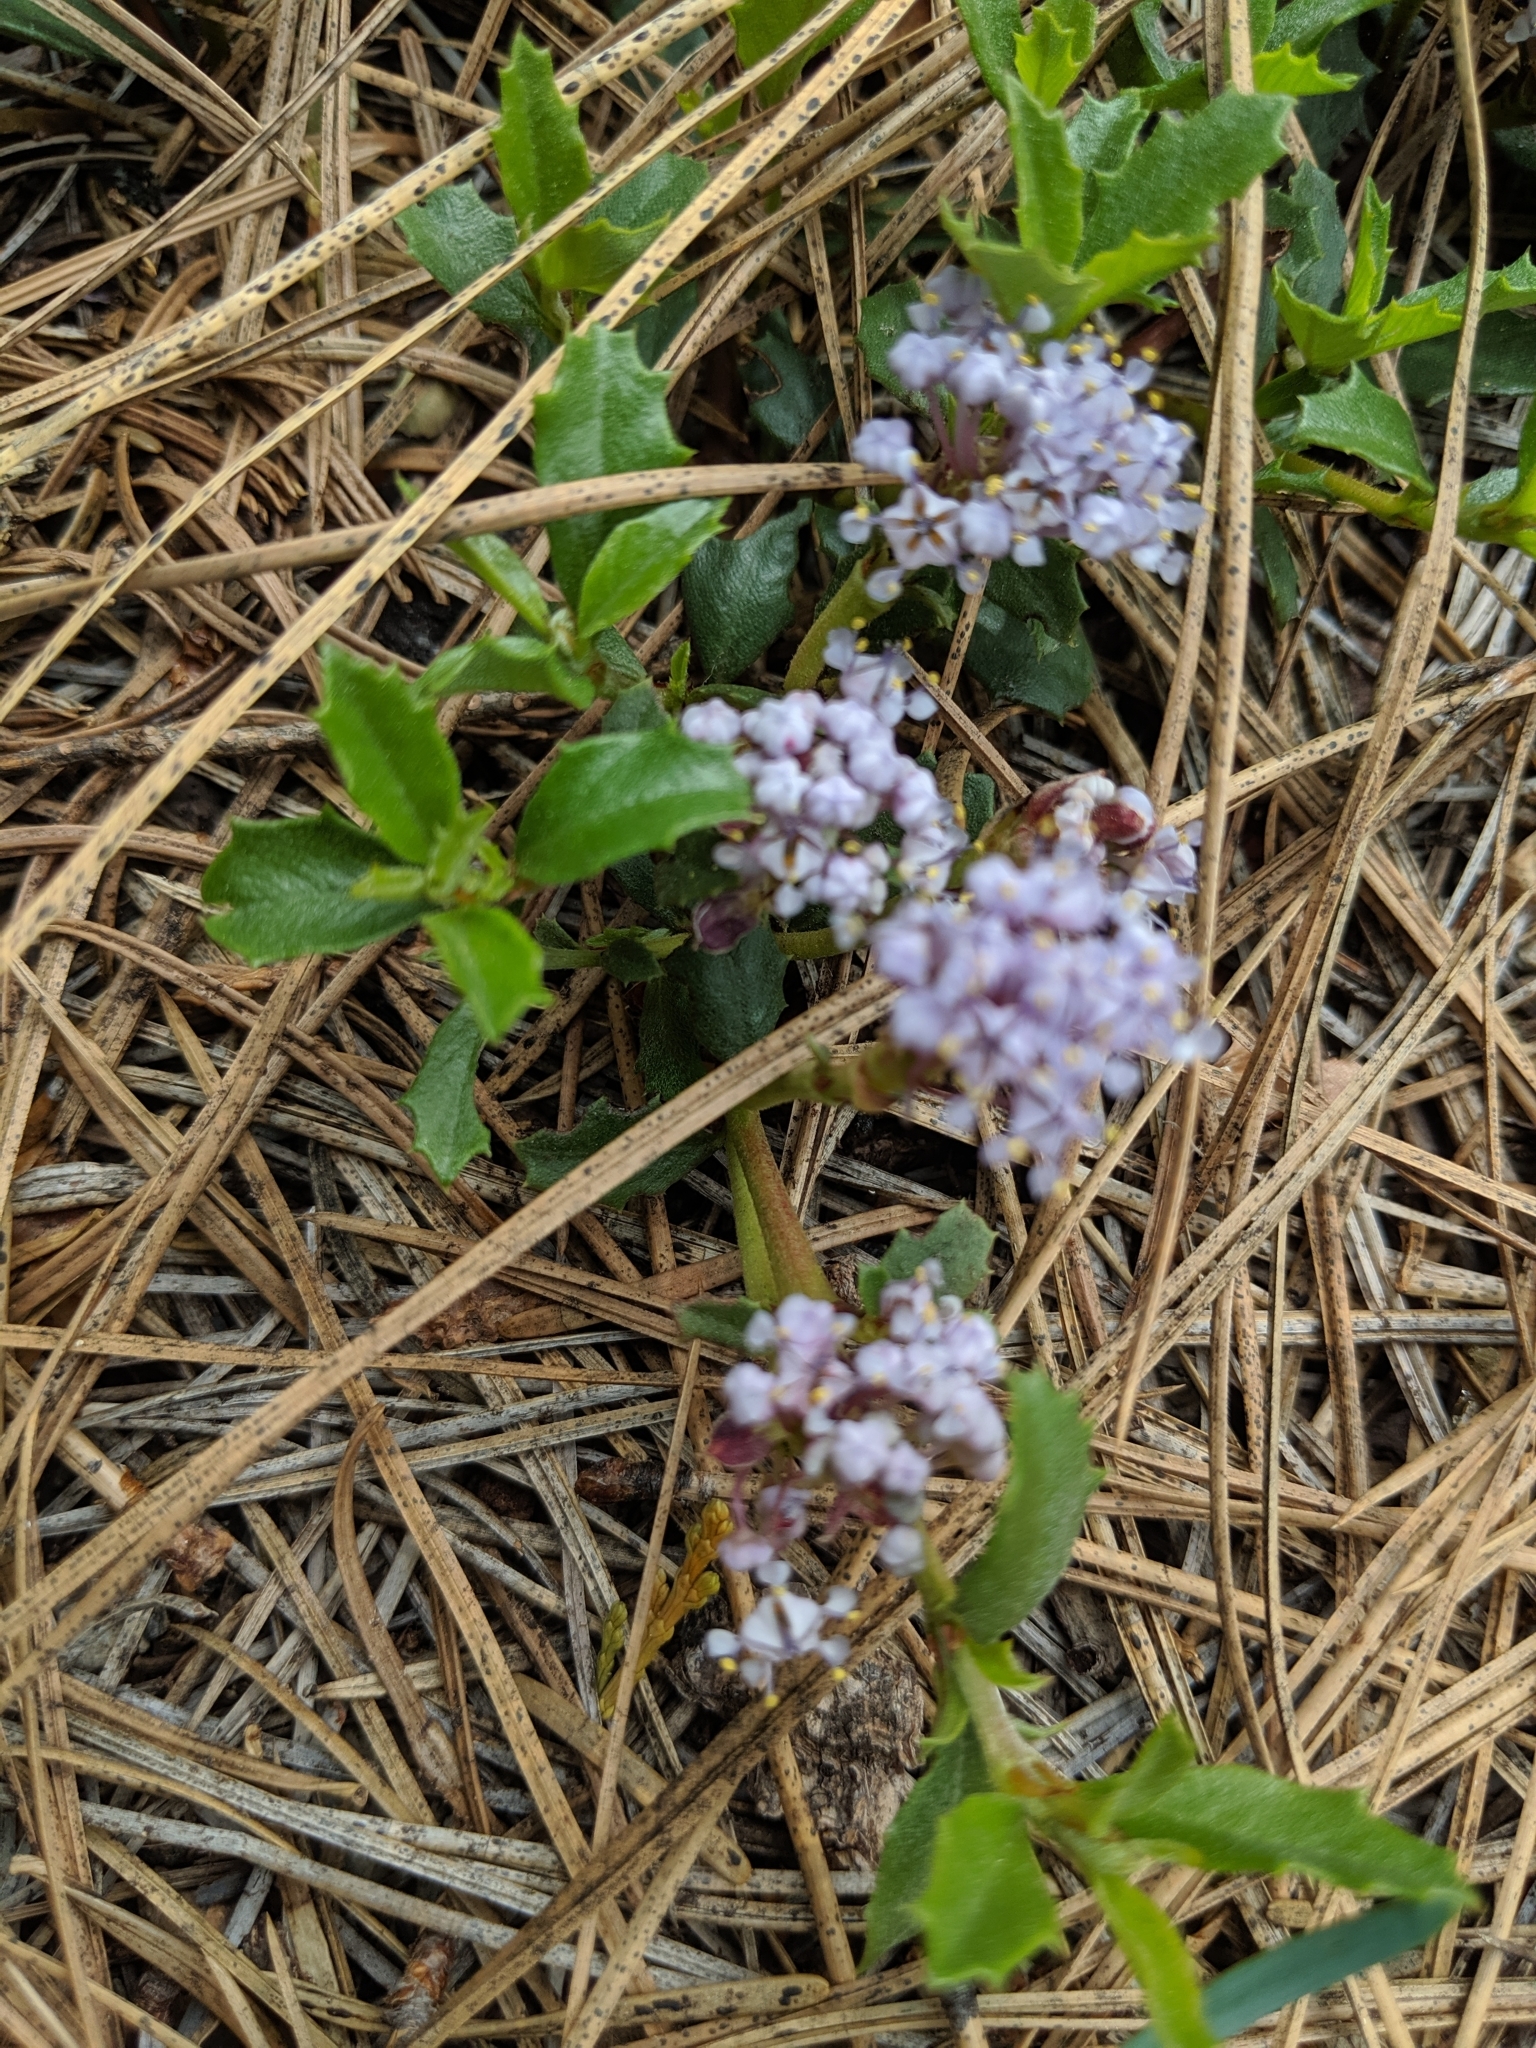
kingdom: Plantae
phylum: Tracheophyta
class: Magnoliopsida
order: Rosales
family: Rhamnaceae
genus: Ceanothus
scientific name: Ceanothus prostratus
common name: Mahala-mat
